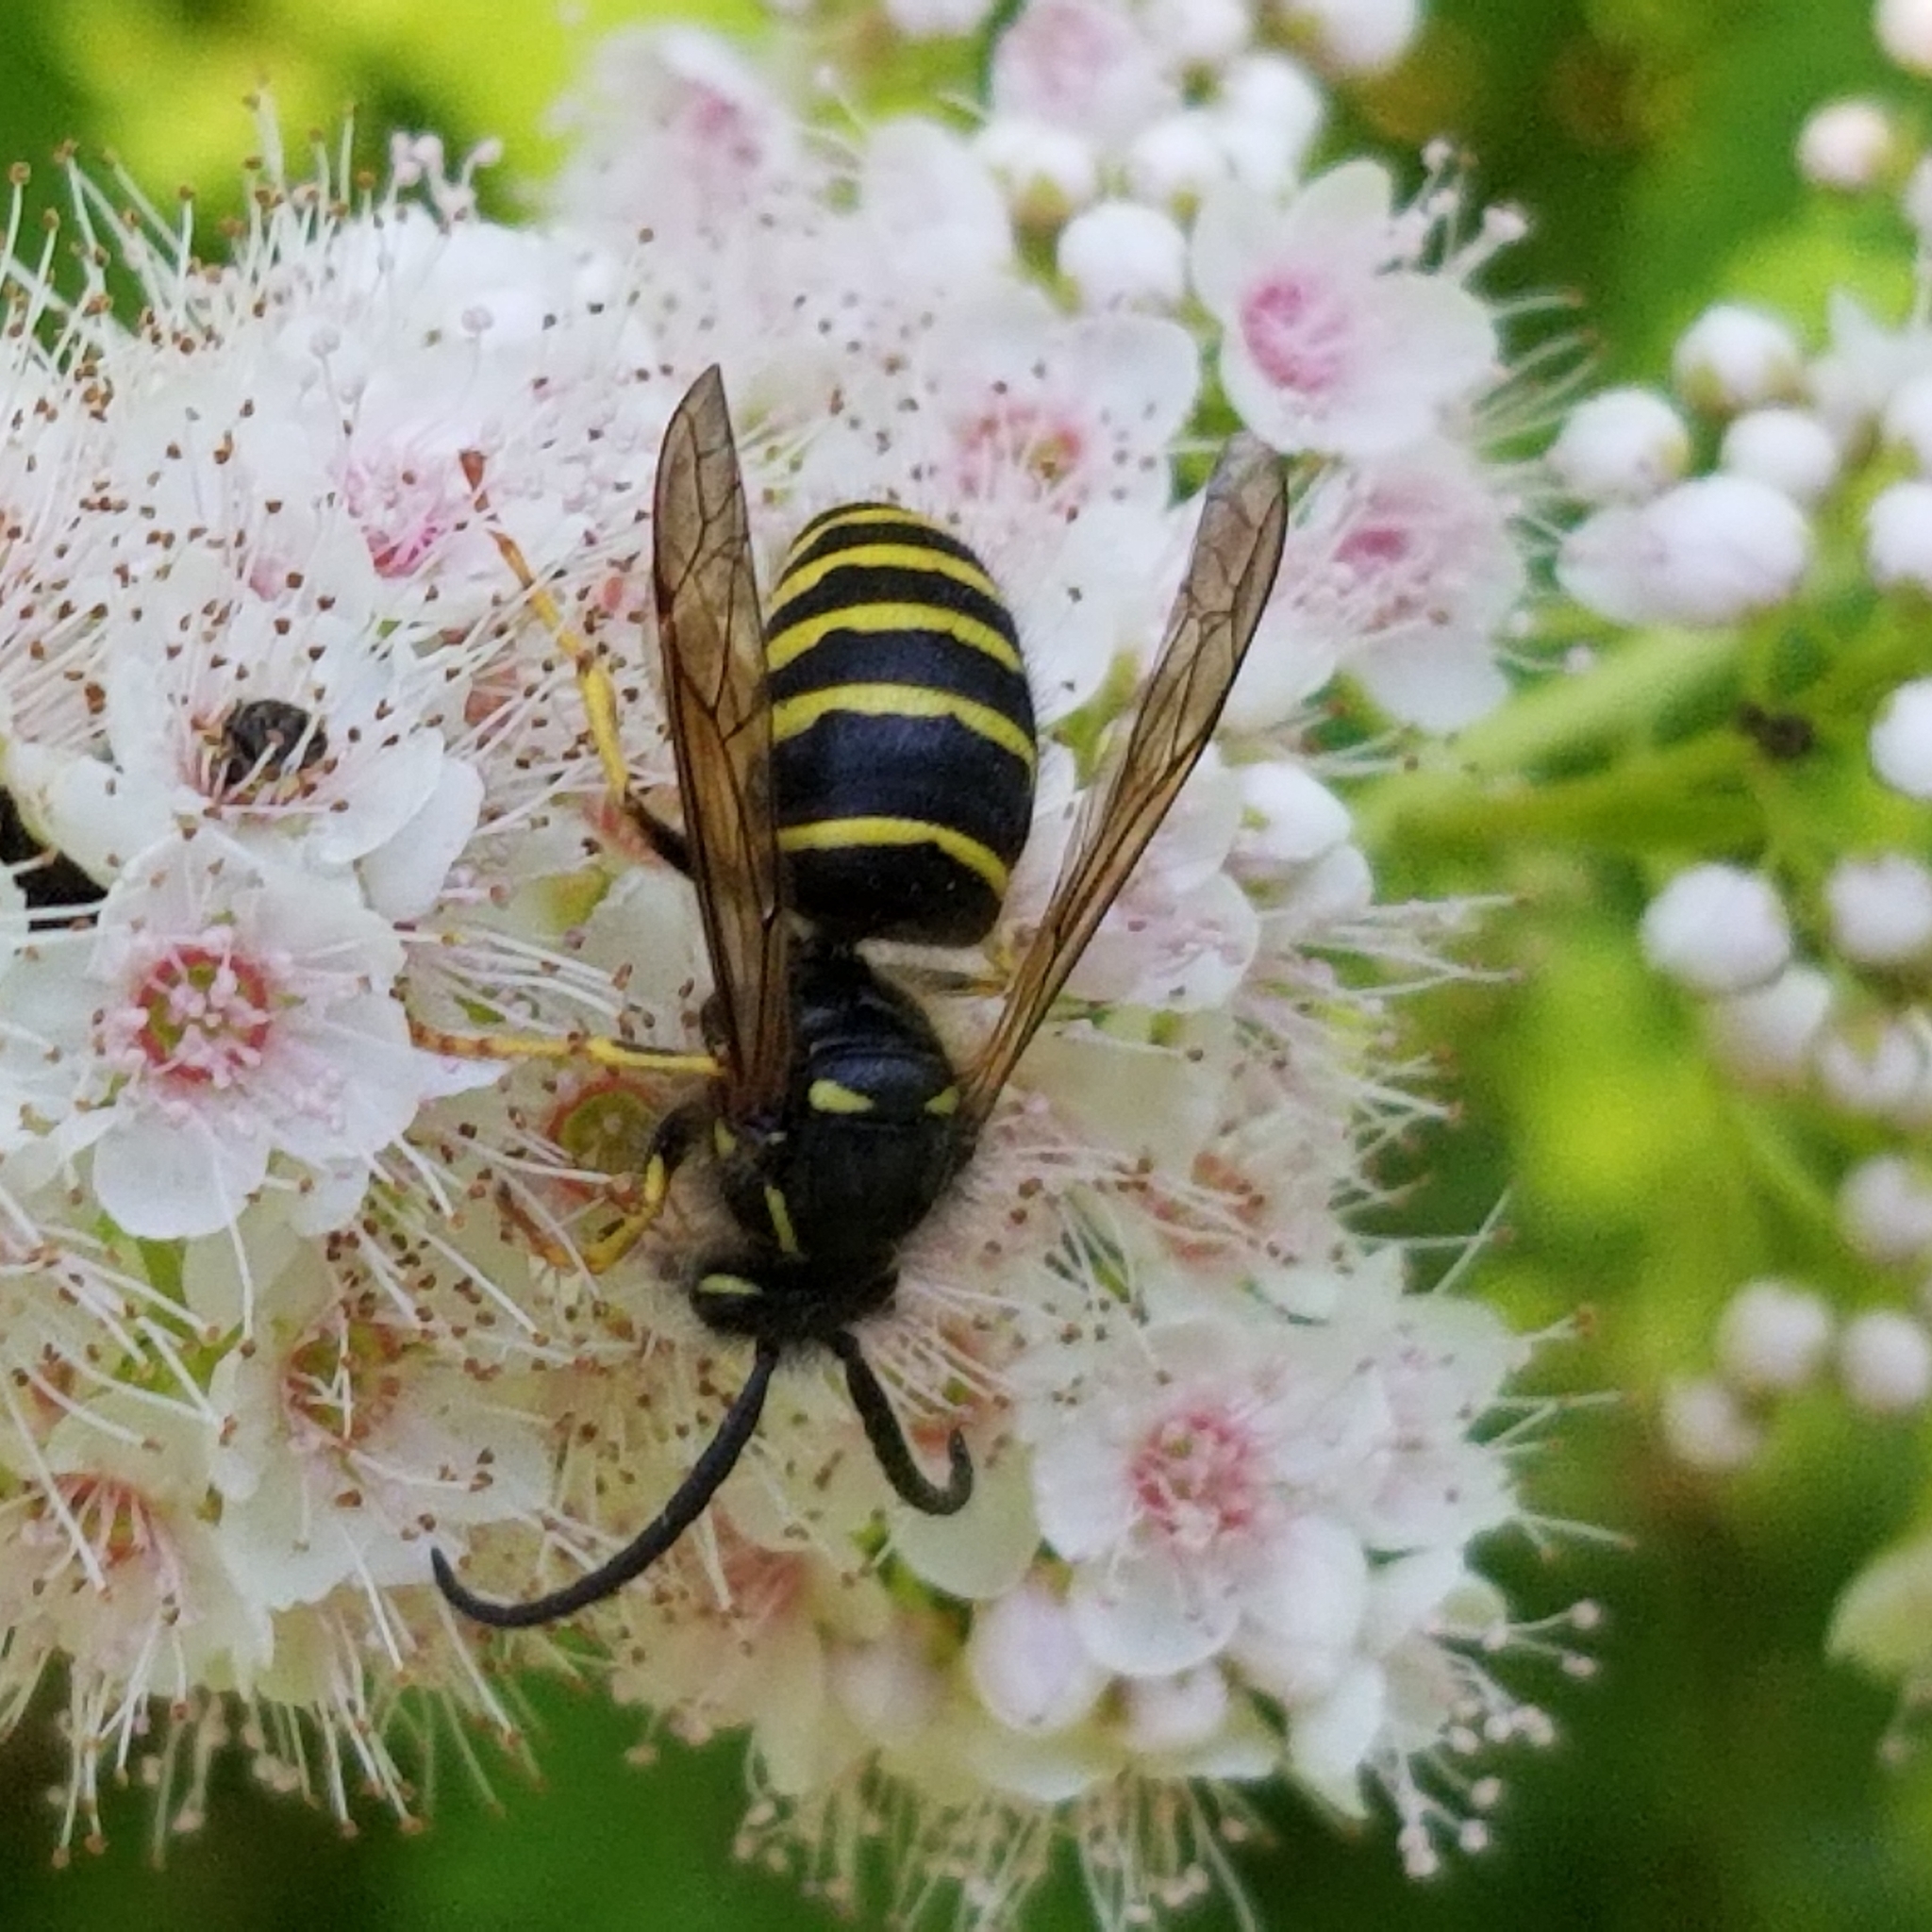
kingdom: Animalia
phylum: Arthropoda
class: Insecta
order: Hymenoptera
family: Vespidae
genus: Dolichovespula
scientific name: Dolichovespula norvegicoides
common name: Northern aerial yellowjacket
